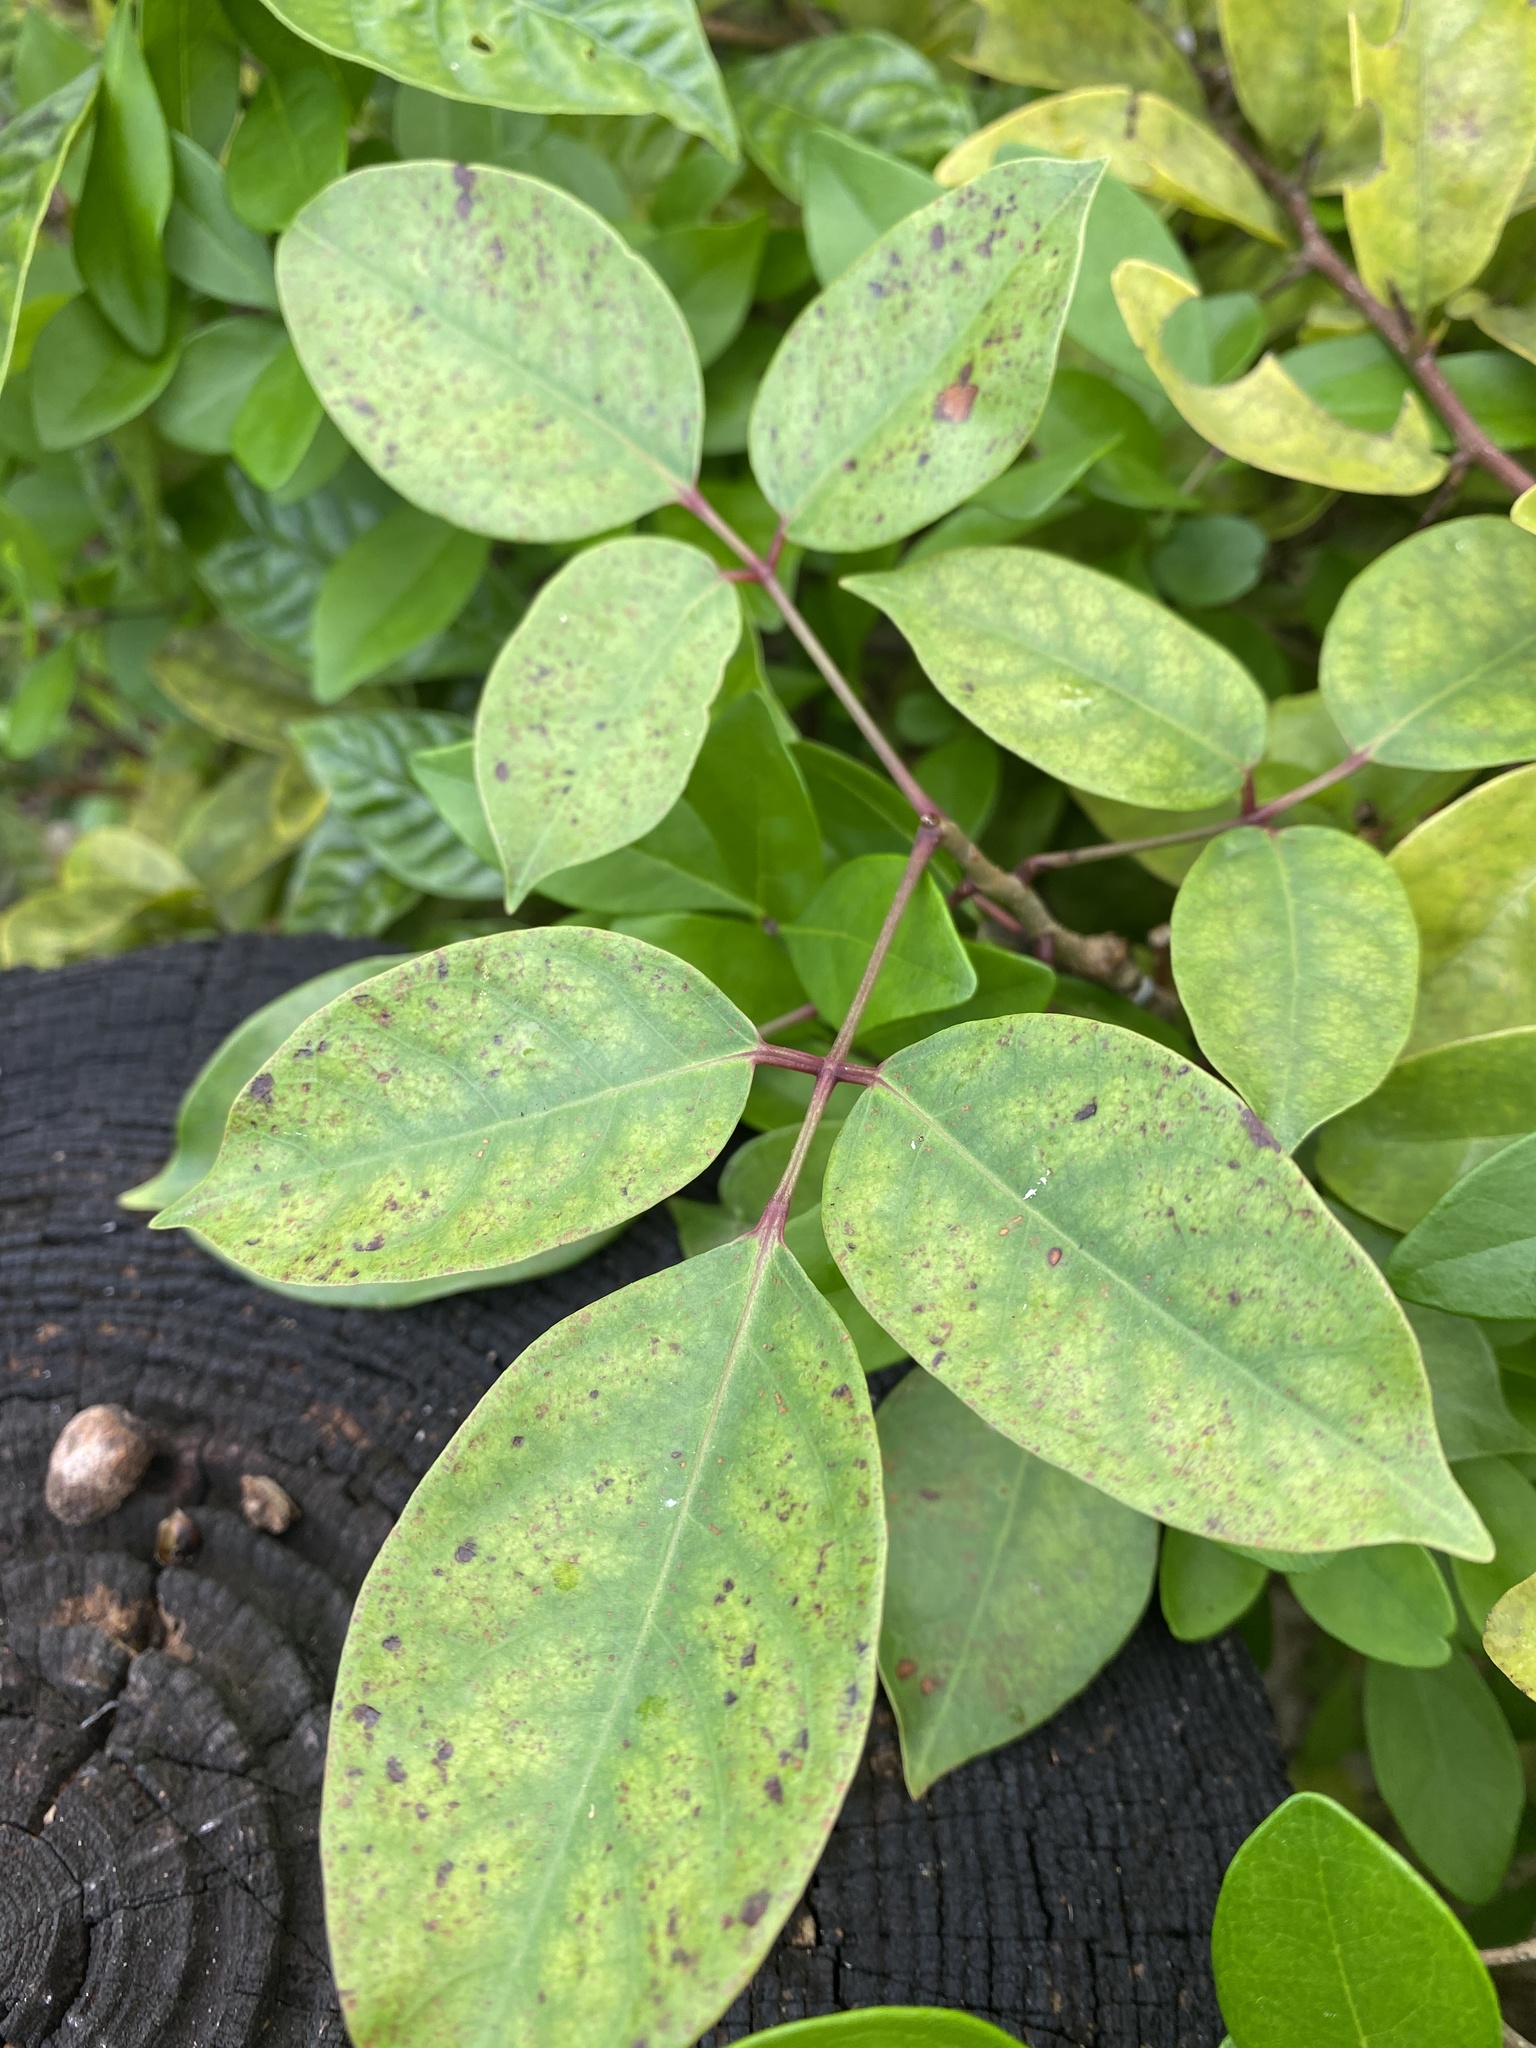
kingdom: Plantae
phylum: Tracheophyta
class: Magnoliopsida
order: Sapindales
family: Burseraceae
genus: Bursera
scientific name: Bursera simaruba
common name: Turpentine tree
